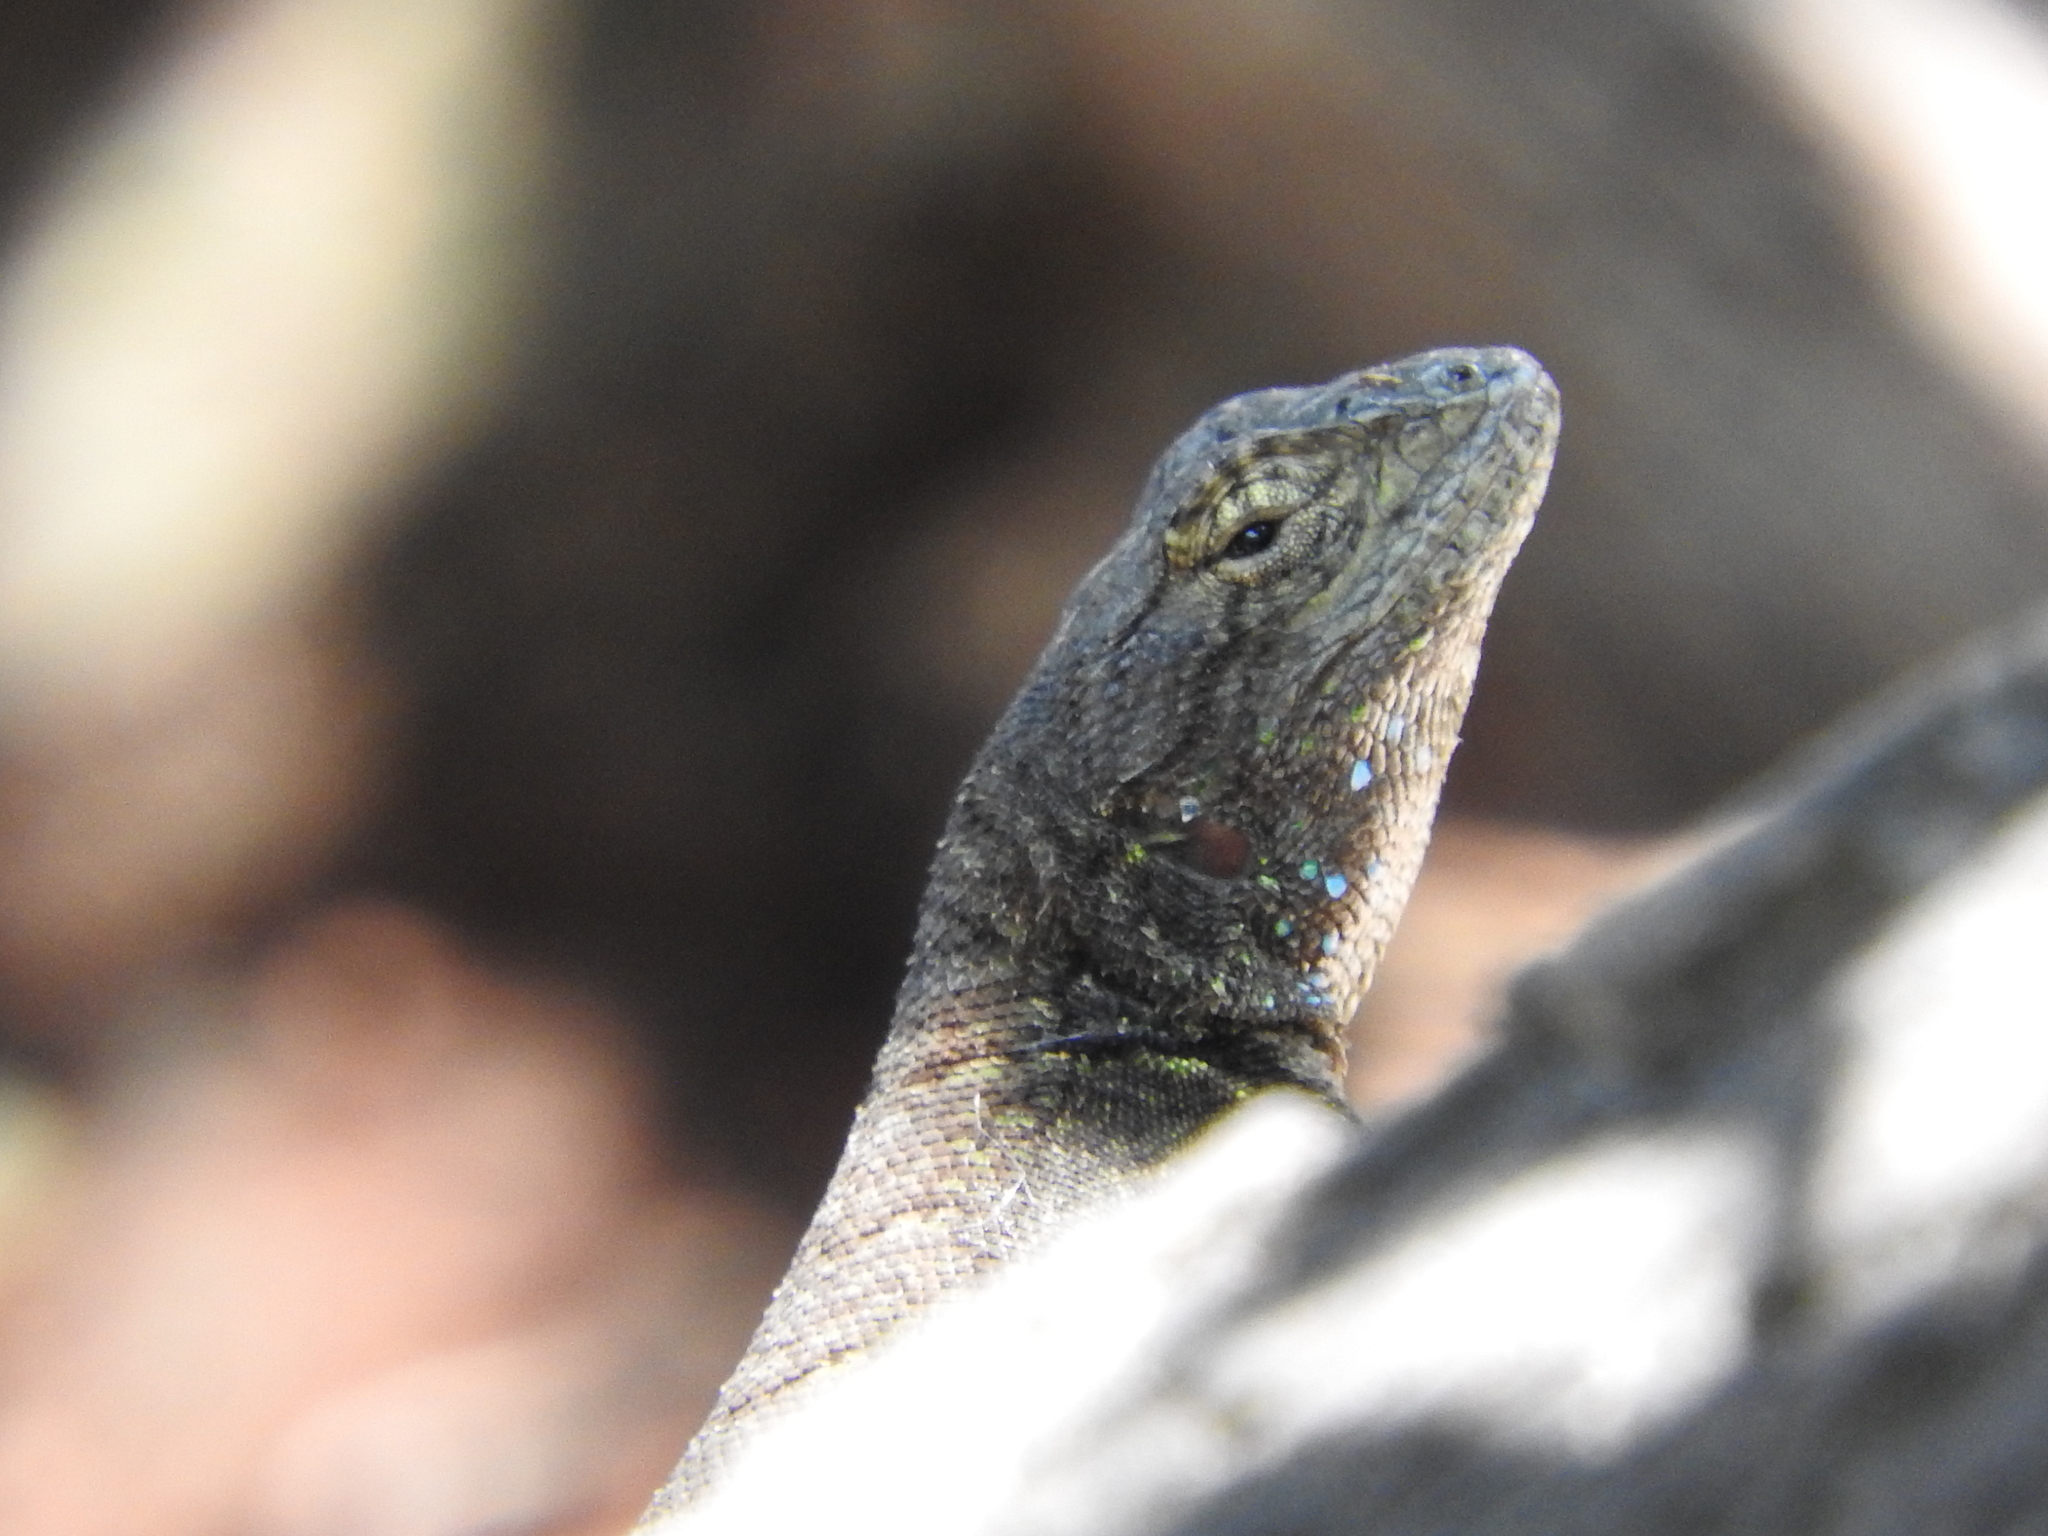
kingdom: Animalia
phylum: Chordata
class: Squamata
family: Phrynosomatidae
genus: Sceloporus
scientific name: Sceloporus grammicus
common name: Mesquite lizard
